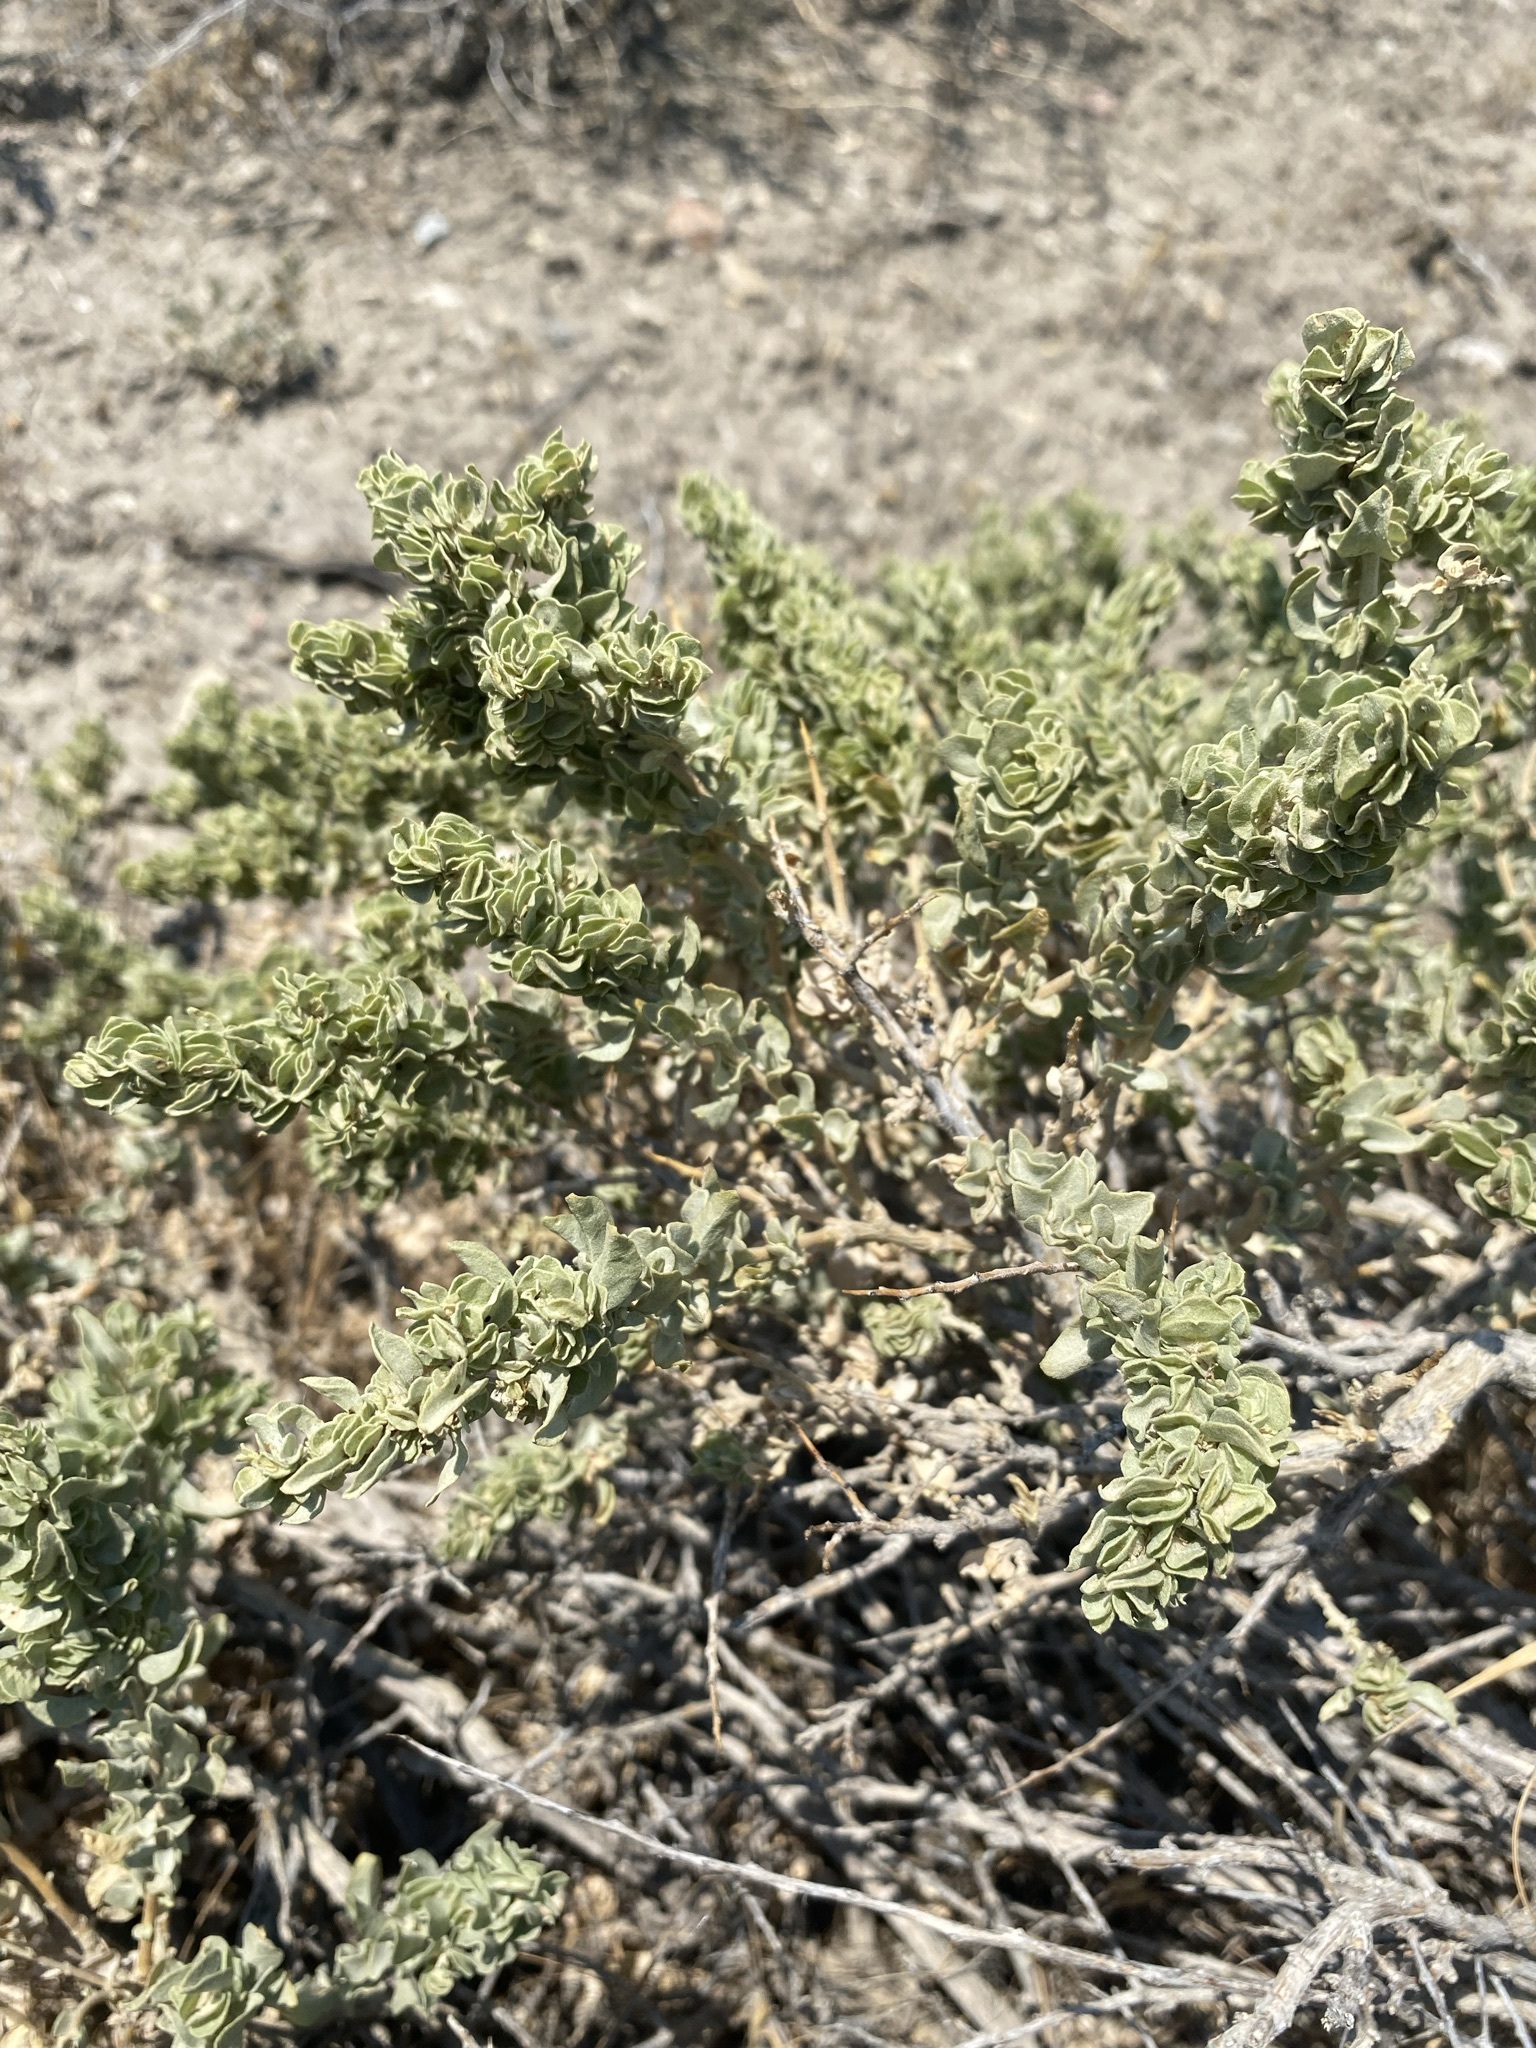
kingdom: Plantae
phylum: Tracheophyta
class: Magnoliopsida
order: Caryophyllales
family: Amaranthaceae
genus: Atriplex
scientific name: Atriplex confertifolia
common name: Shadscale
